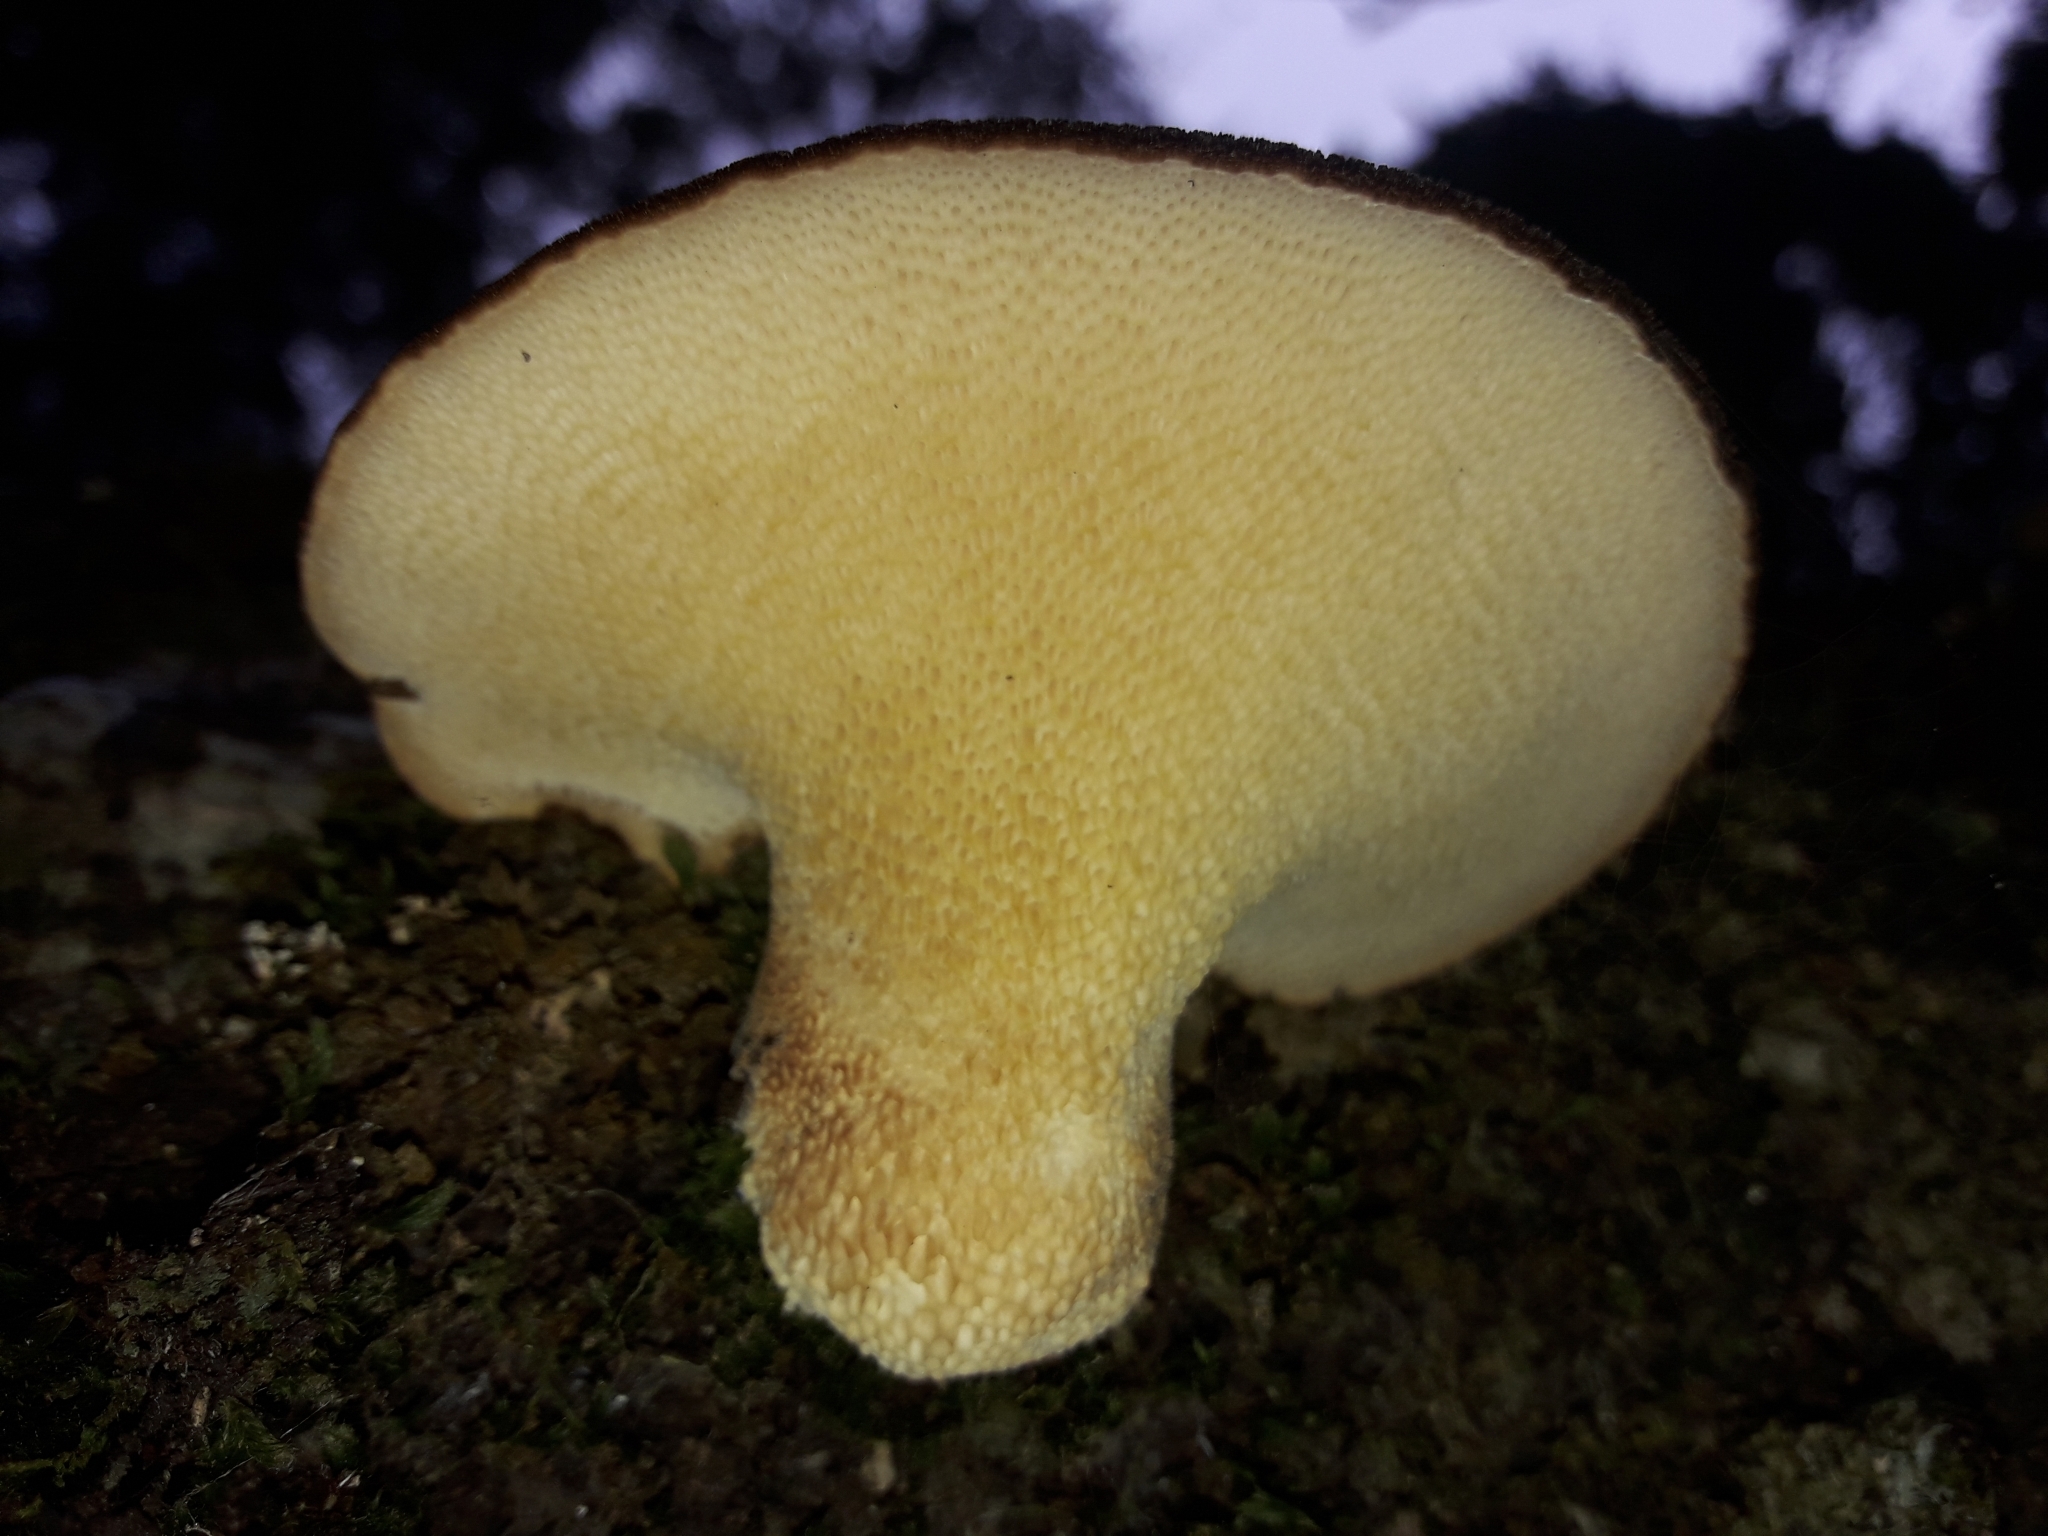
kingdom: Fungi
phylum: Basidiomycota
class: Agaricomycetes
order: Polyporales
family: Polyporaceae
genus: Bresadolia
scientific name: Bresadolia
